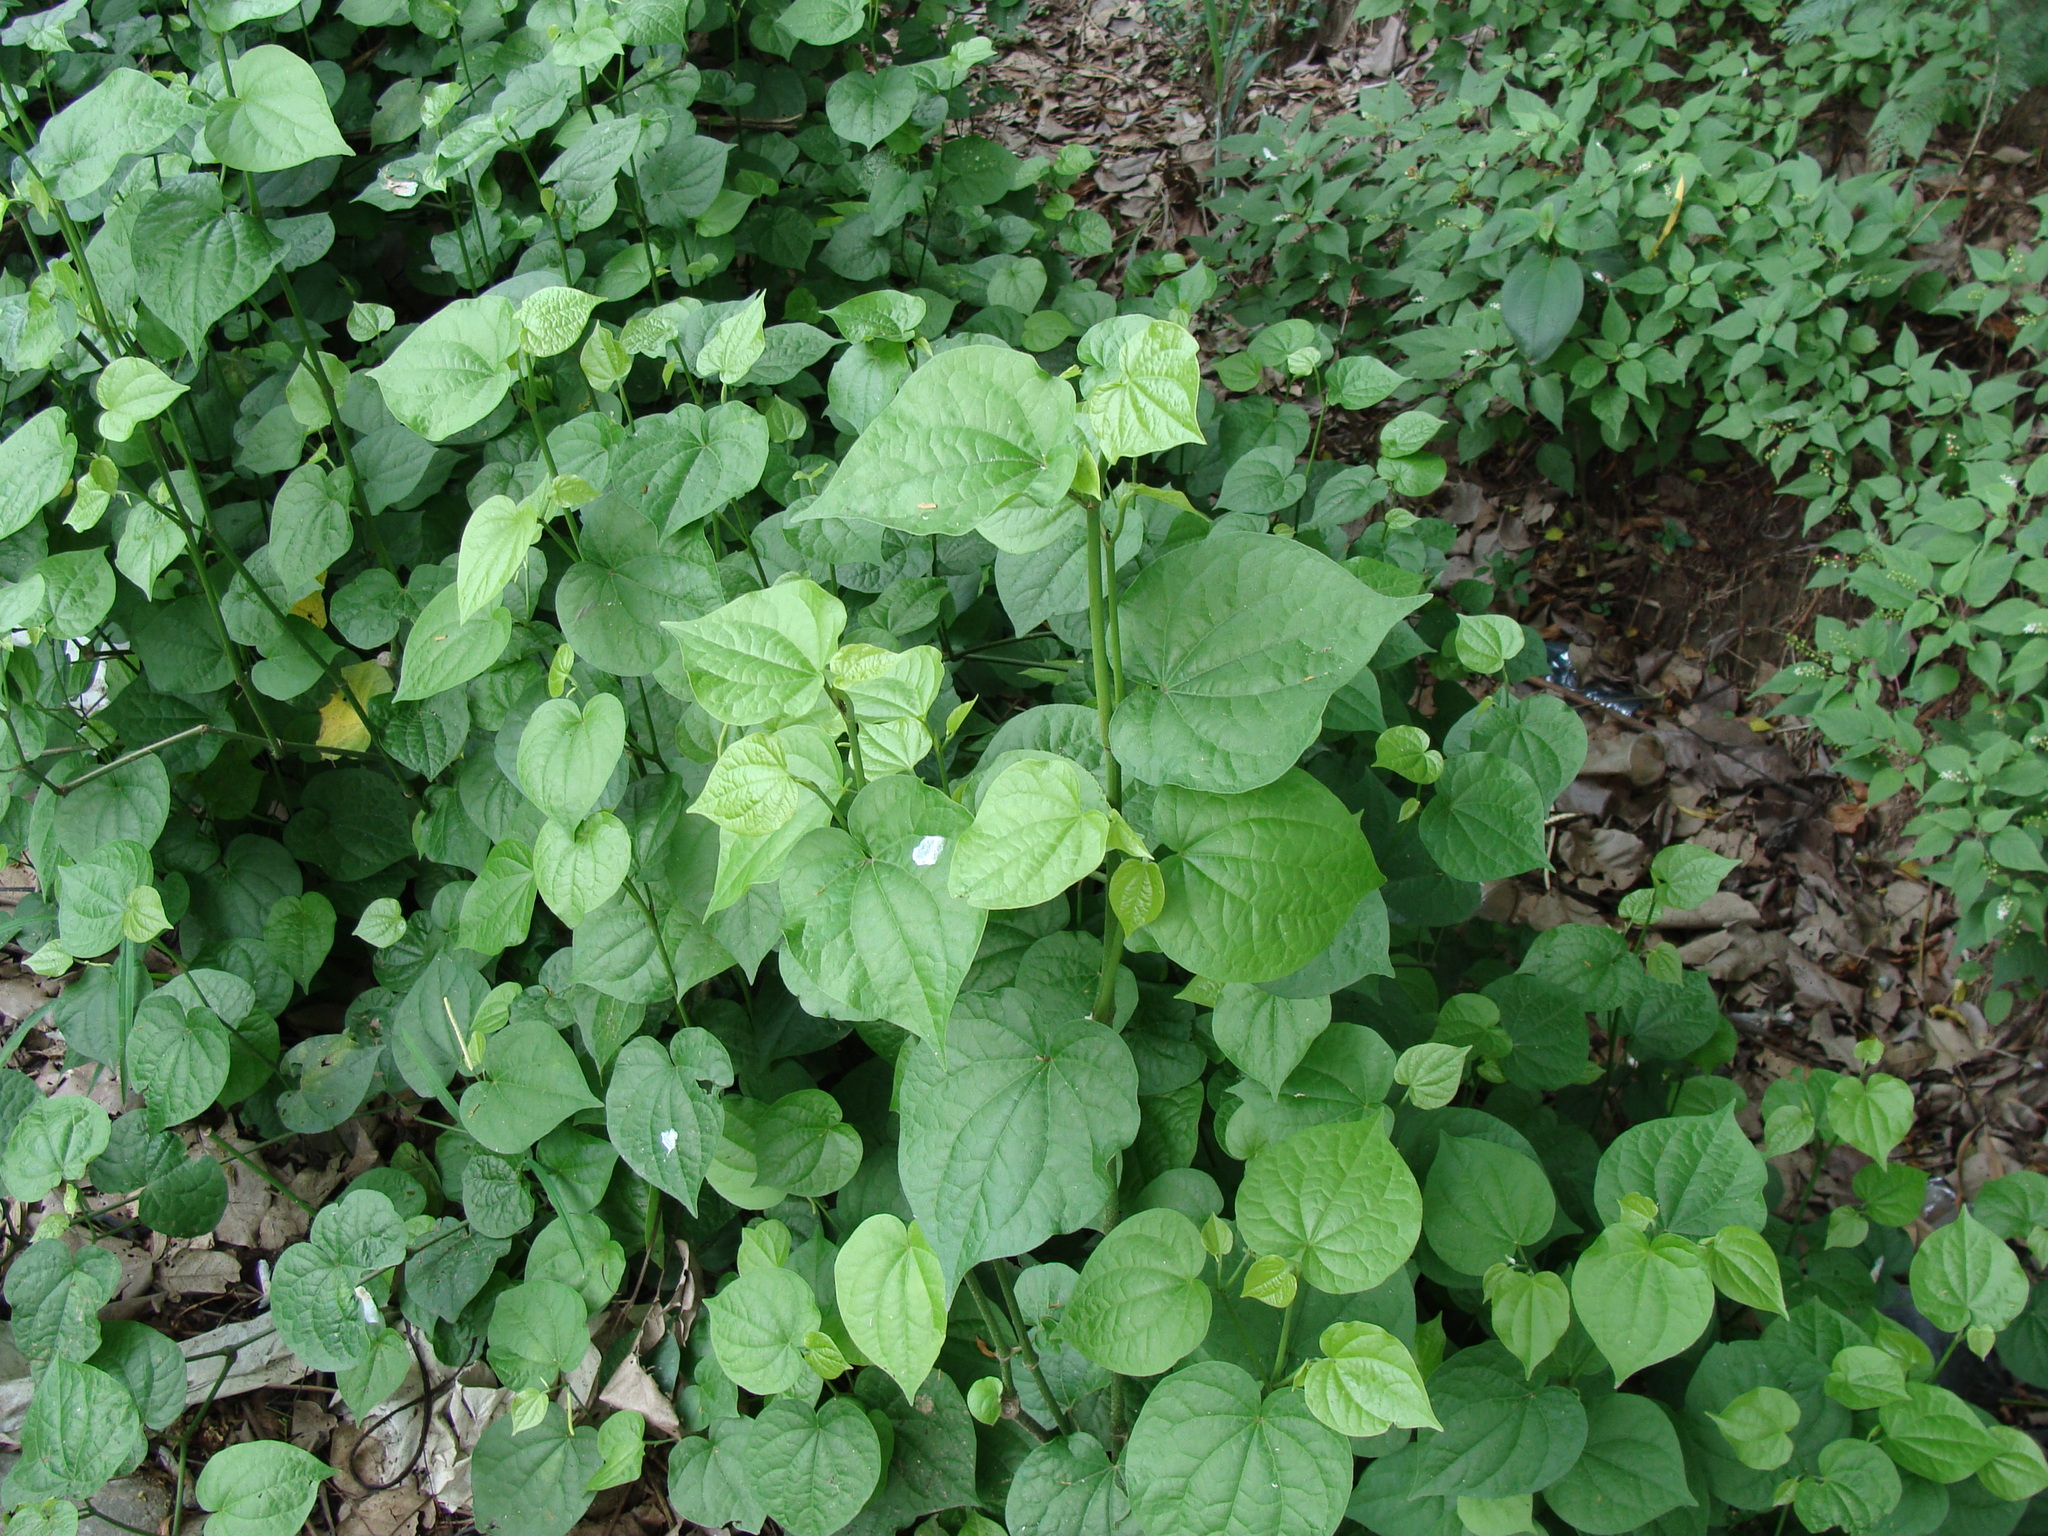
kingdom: Plantae
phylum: Tracheophyta
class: Magnoliopsida
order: Piperales
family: Piperaceae
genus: Piper
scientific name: Piper guazacapanense
